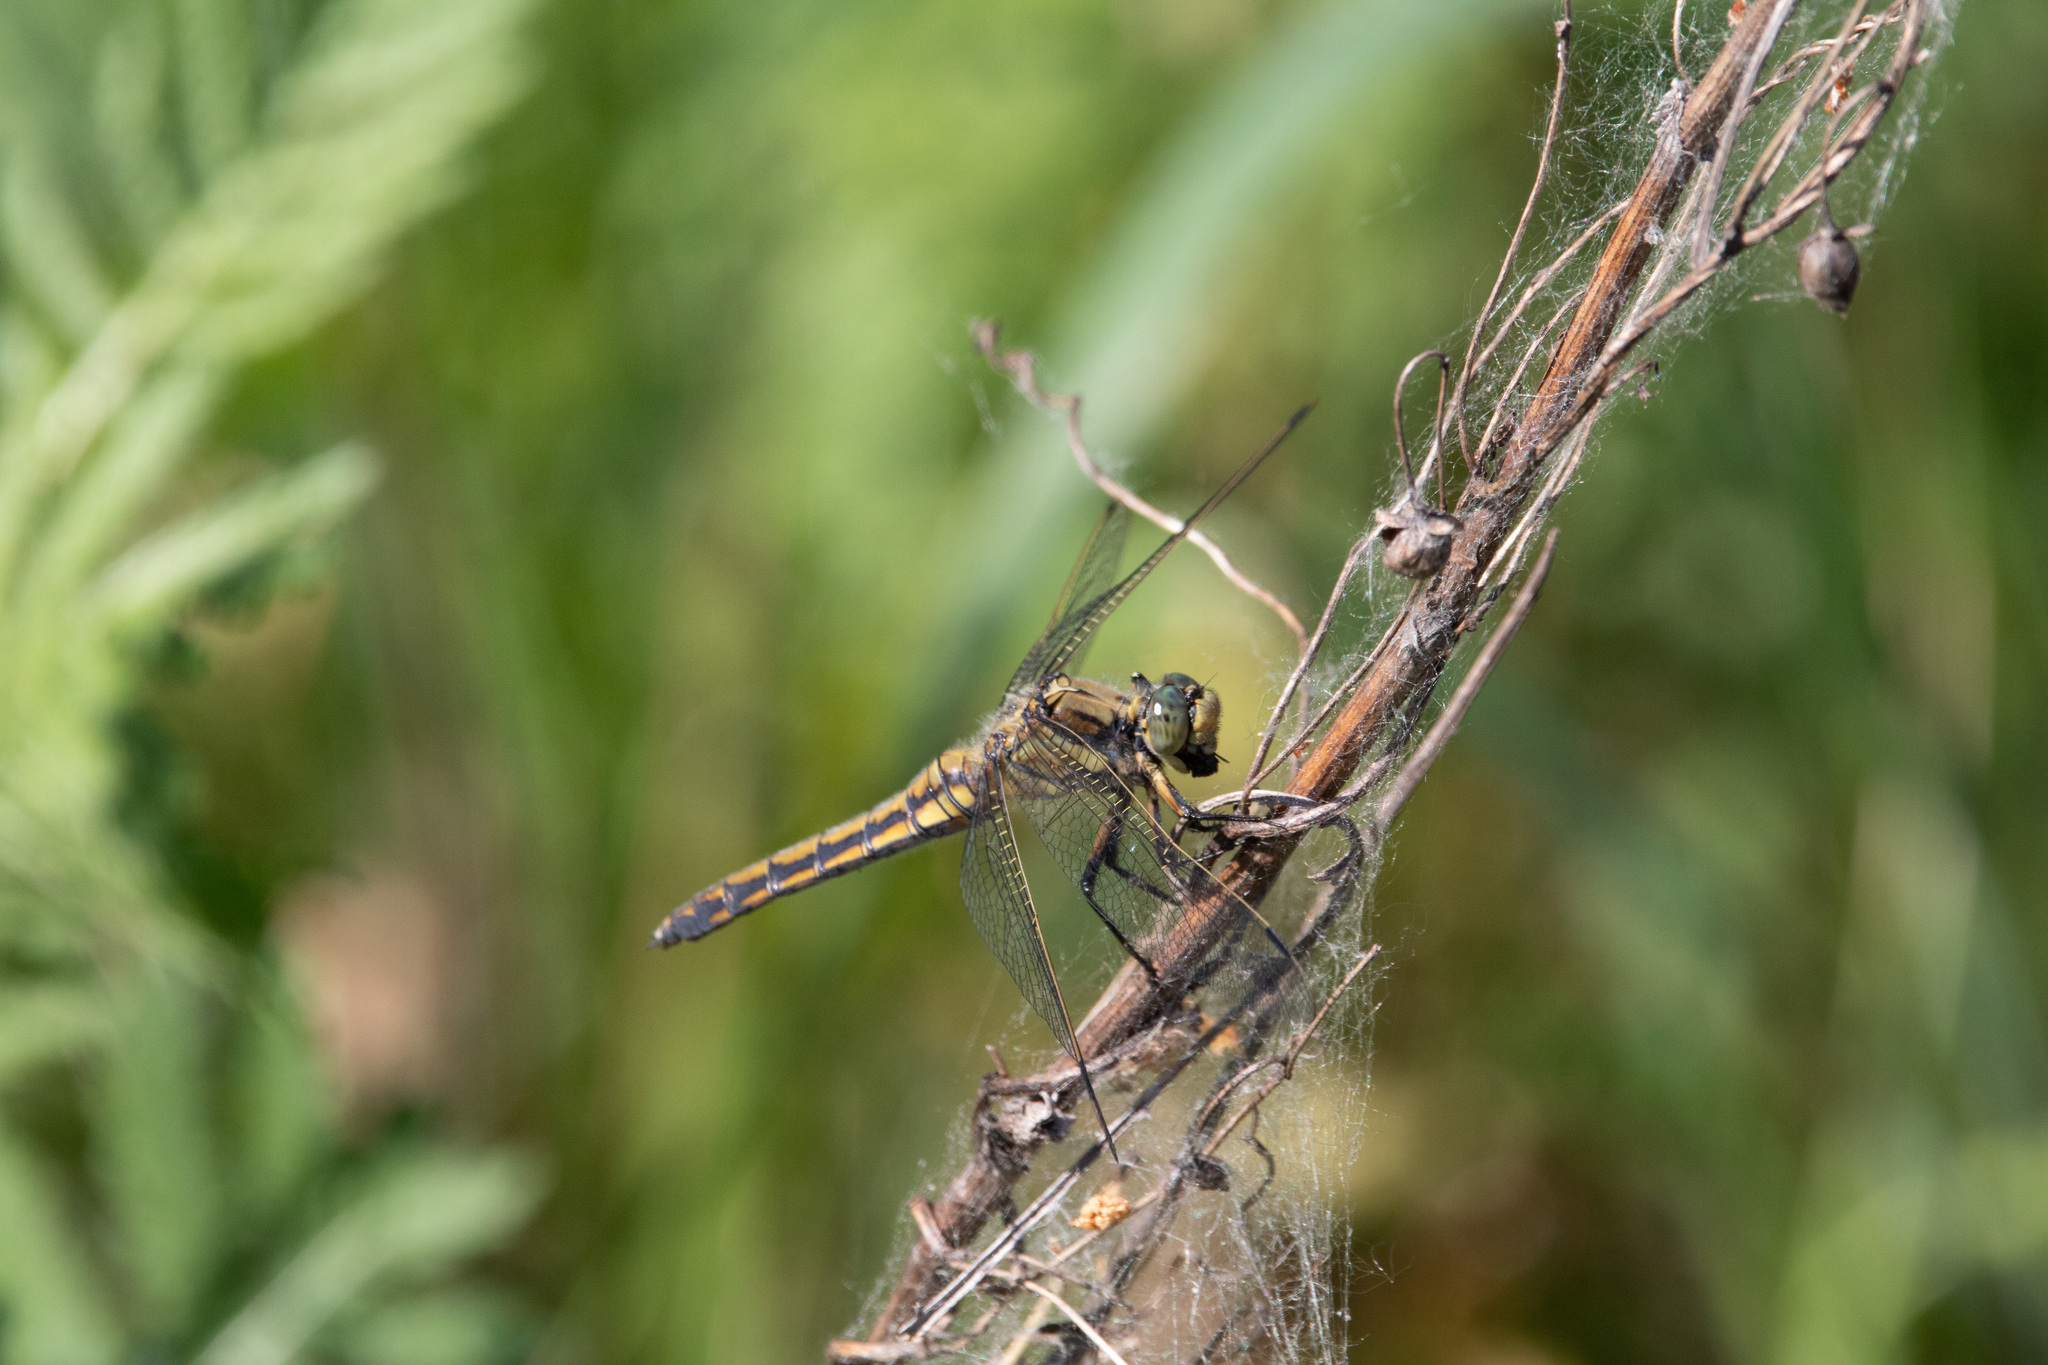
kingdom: Animalia
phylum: Arthropoda
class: Insecta
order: Odonata
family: Libellulidae
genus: Orthetrum
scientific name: Orthetrum cancellatum
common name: Black-tailed skimmer
